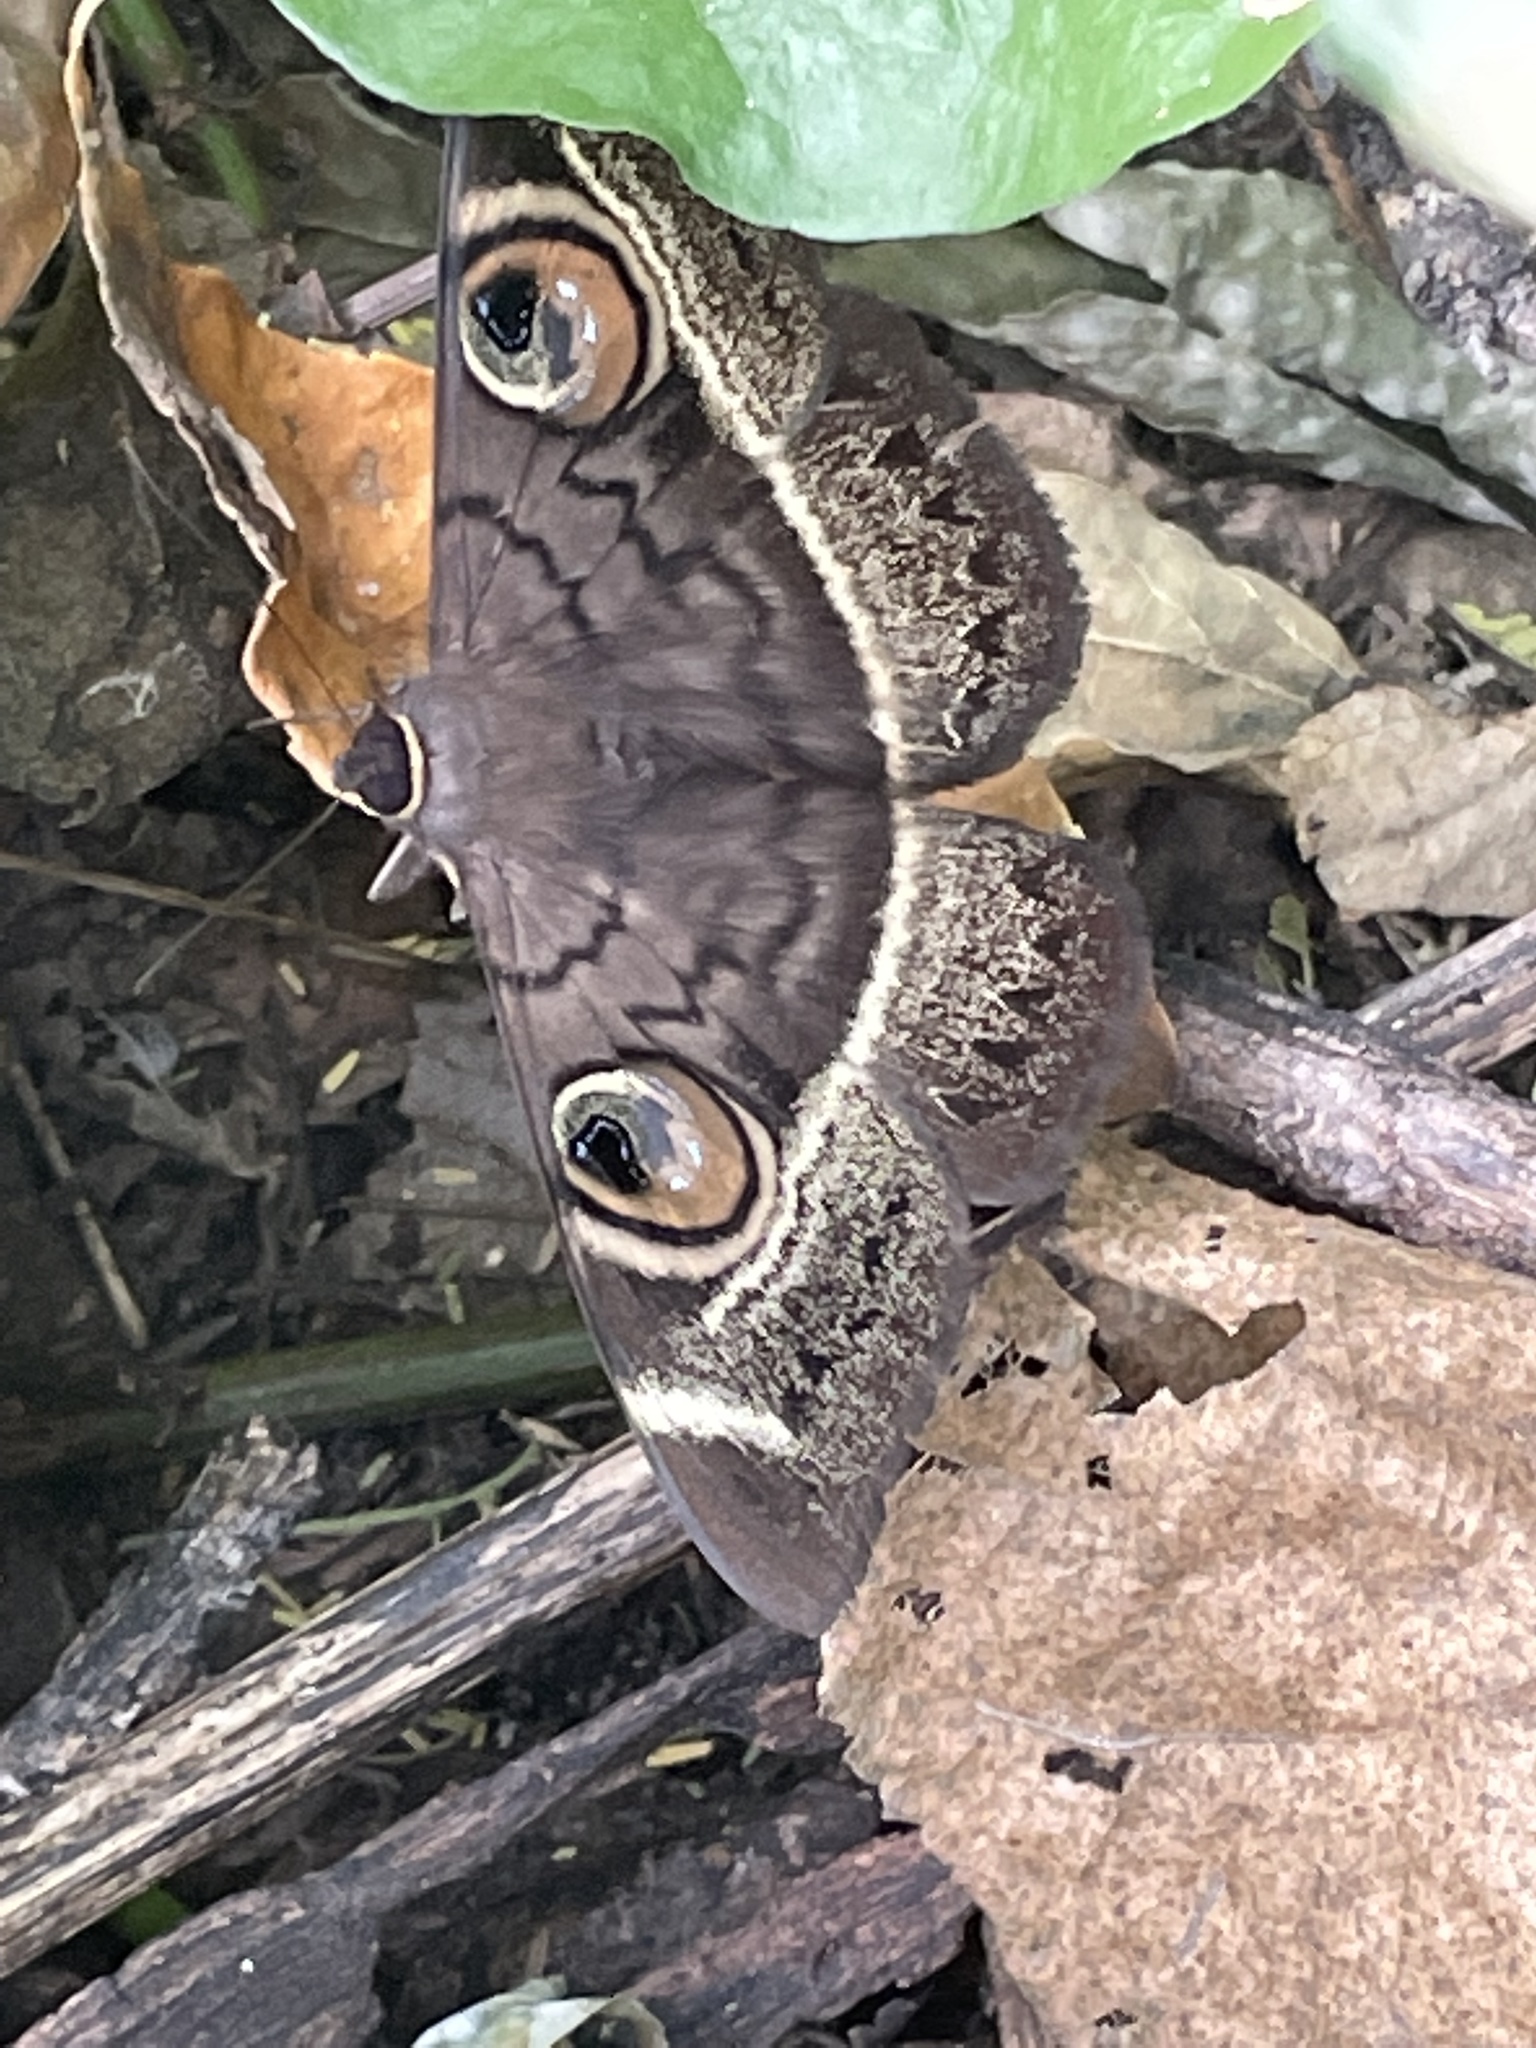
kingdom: Animalia
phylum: Arthropoda
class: Insecta
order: Lepidoptera
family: Erebidae
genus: Cyligramma
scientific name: Cyligramma latona
